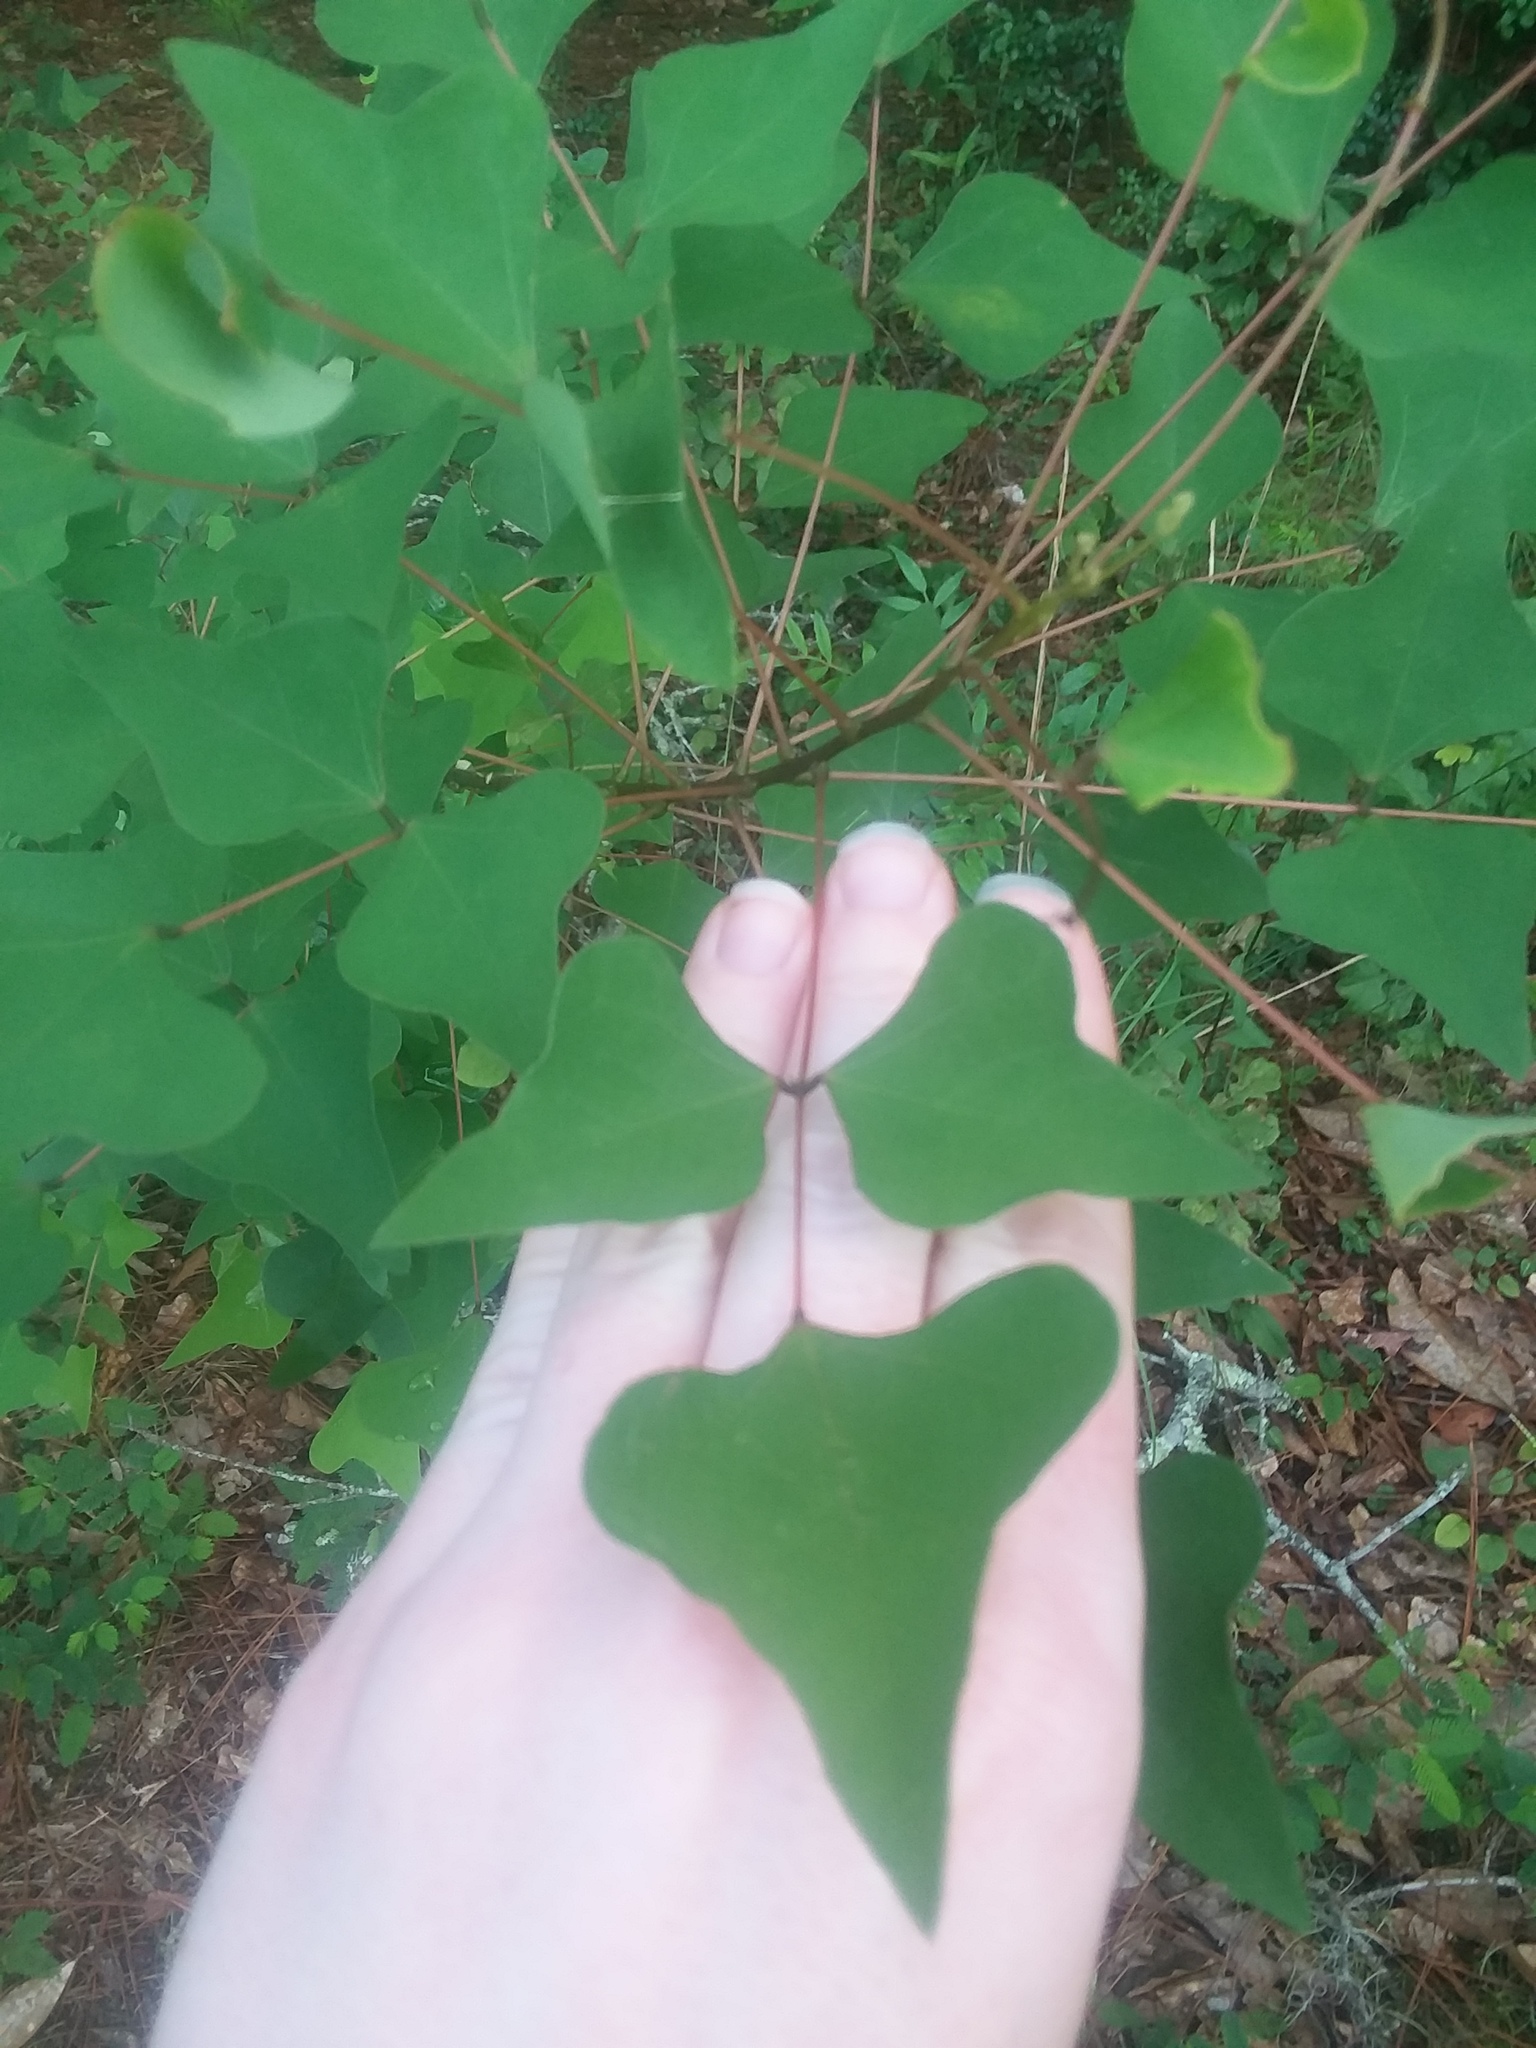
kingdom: Plantae
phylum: Tracheophyta
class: Magnoliopsida
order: Fabales
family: Fabaceae
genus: Erythrina
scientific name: Erythrina herbacea
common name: Coral-bean
